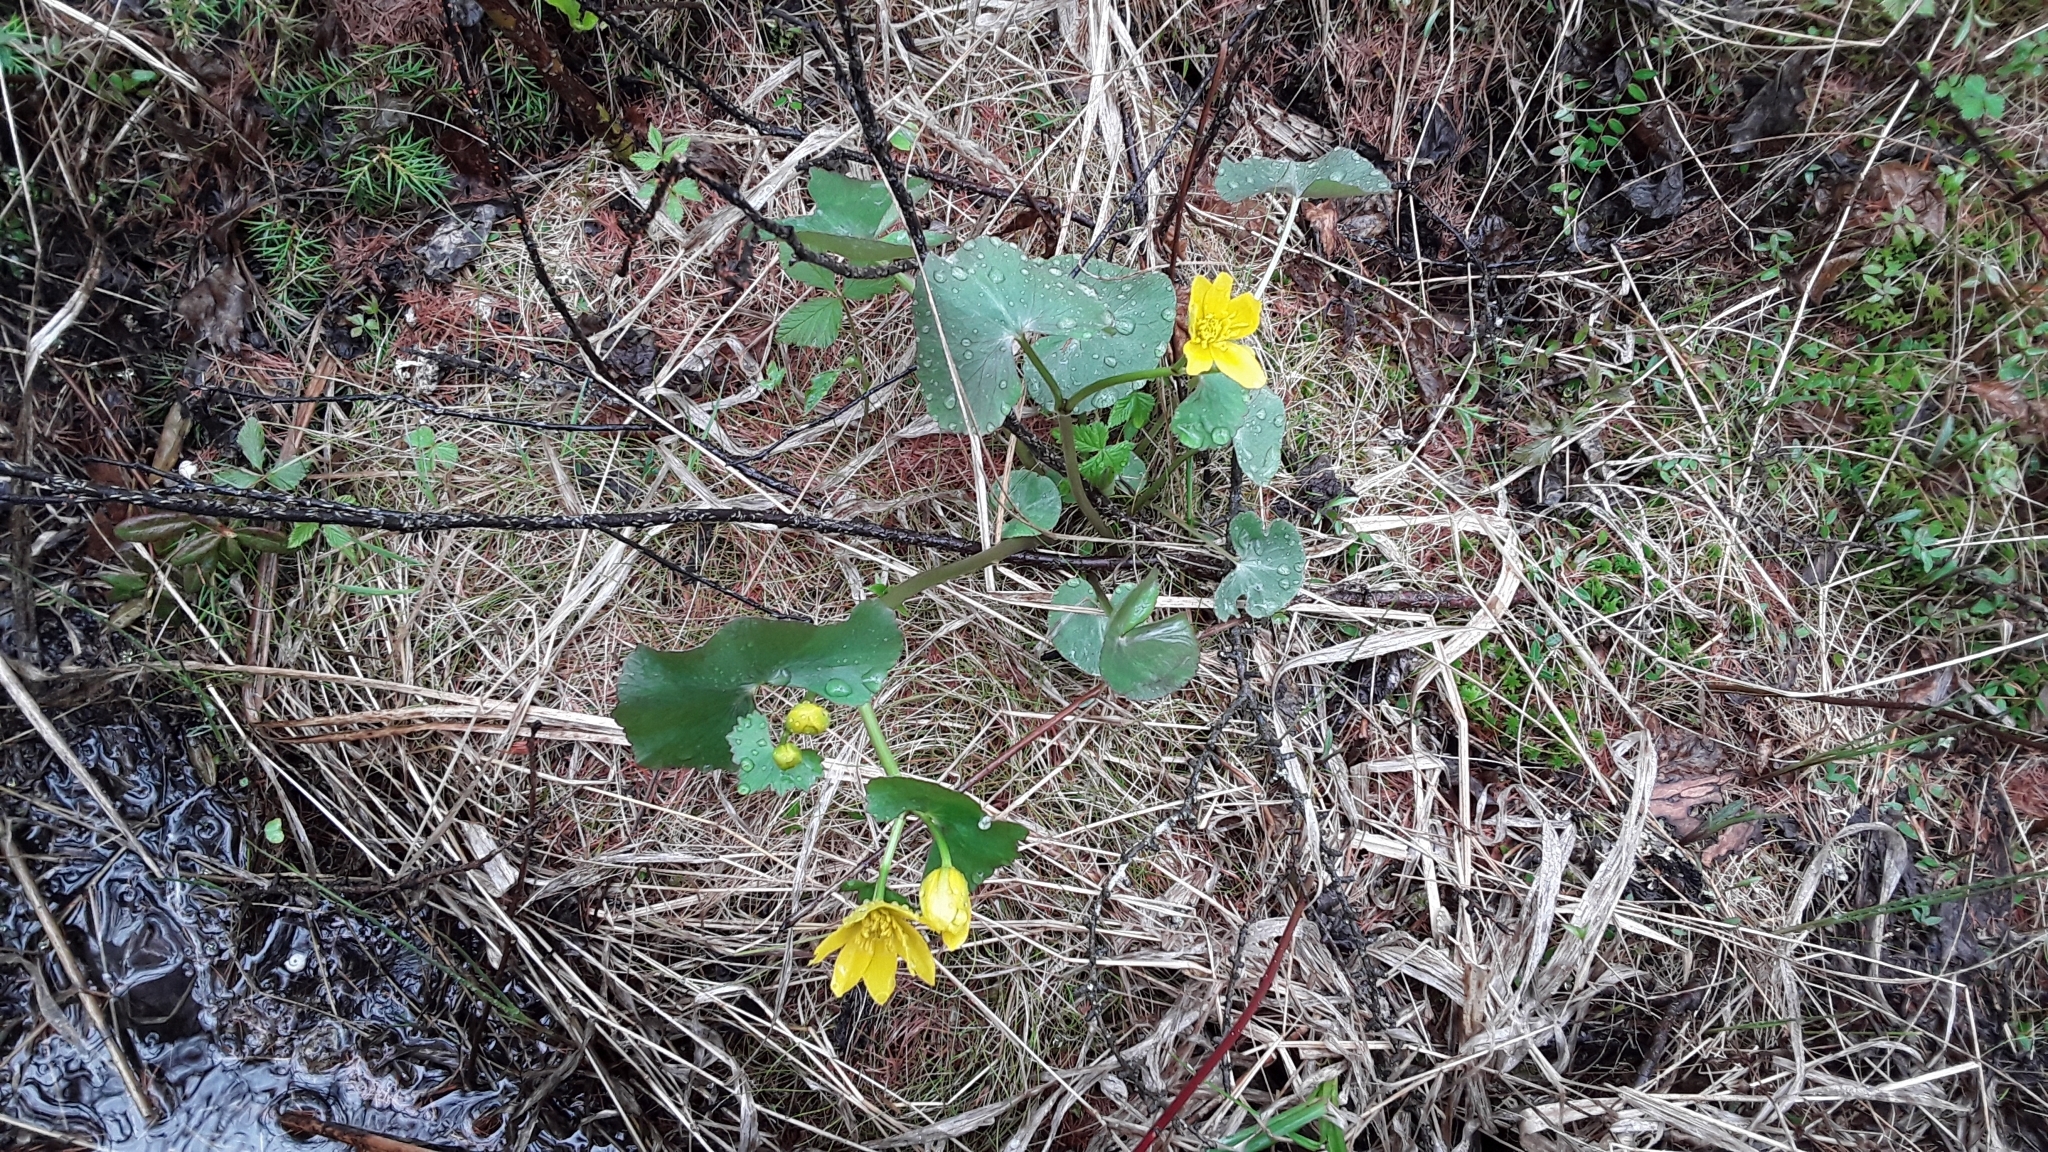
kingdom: Plantae
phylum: Tracheophyta
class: Magnoliopsida
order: Ranunculales
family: Ranunculaceae
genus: Caltha
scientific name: Caltha palustris
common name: Marsh marigold
